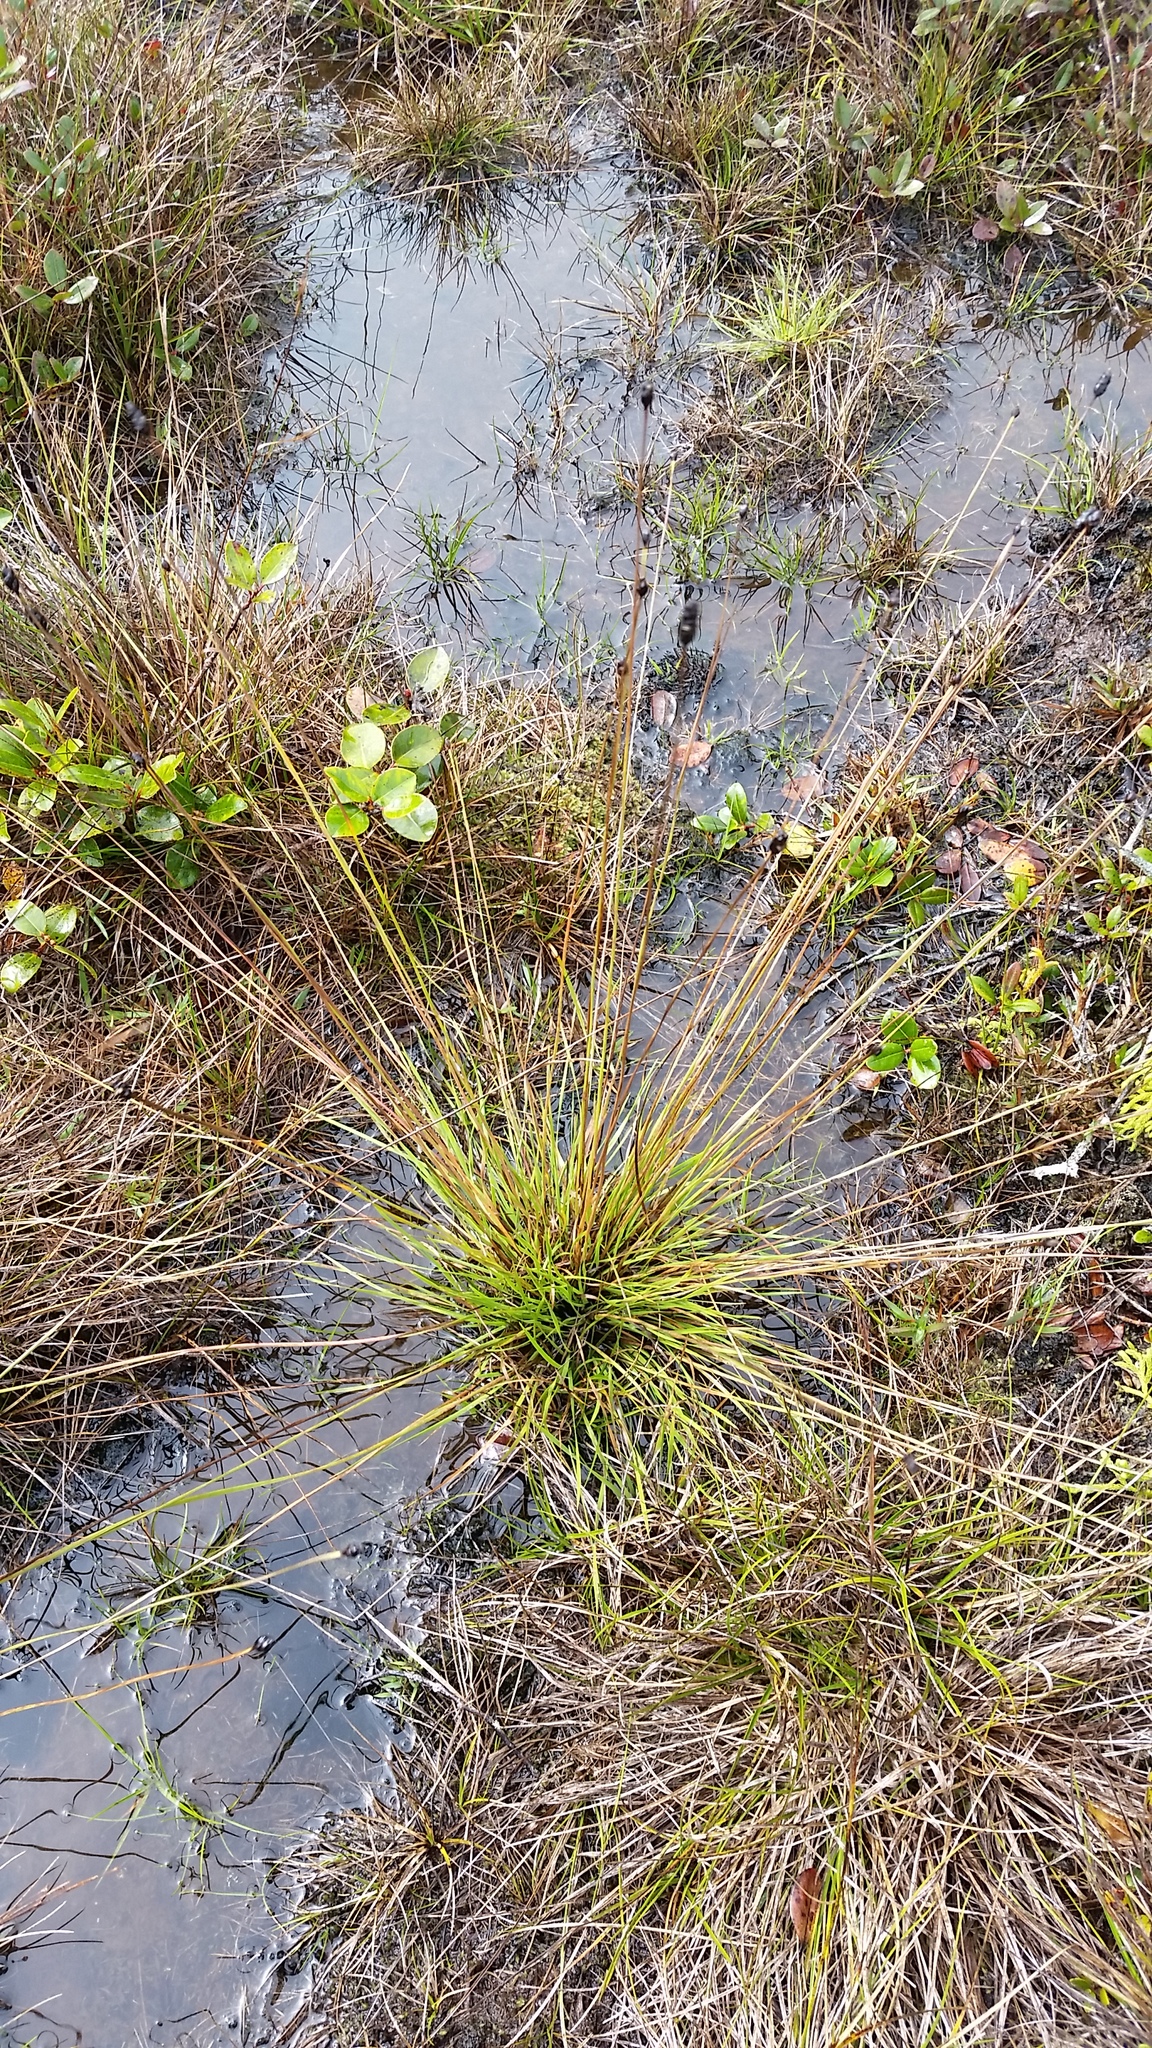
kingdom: Plantae
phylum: Tracheophyta
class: Liliopsida
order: Poales
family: Xyridaceae
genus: Xyris
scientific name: Xyris complanata
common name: Hawai'i yelloweyed grass
